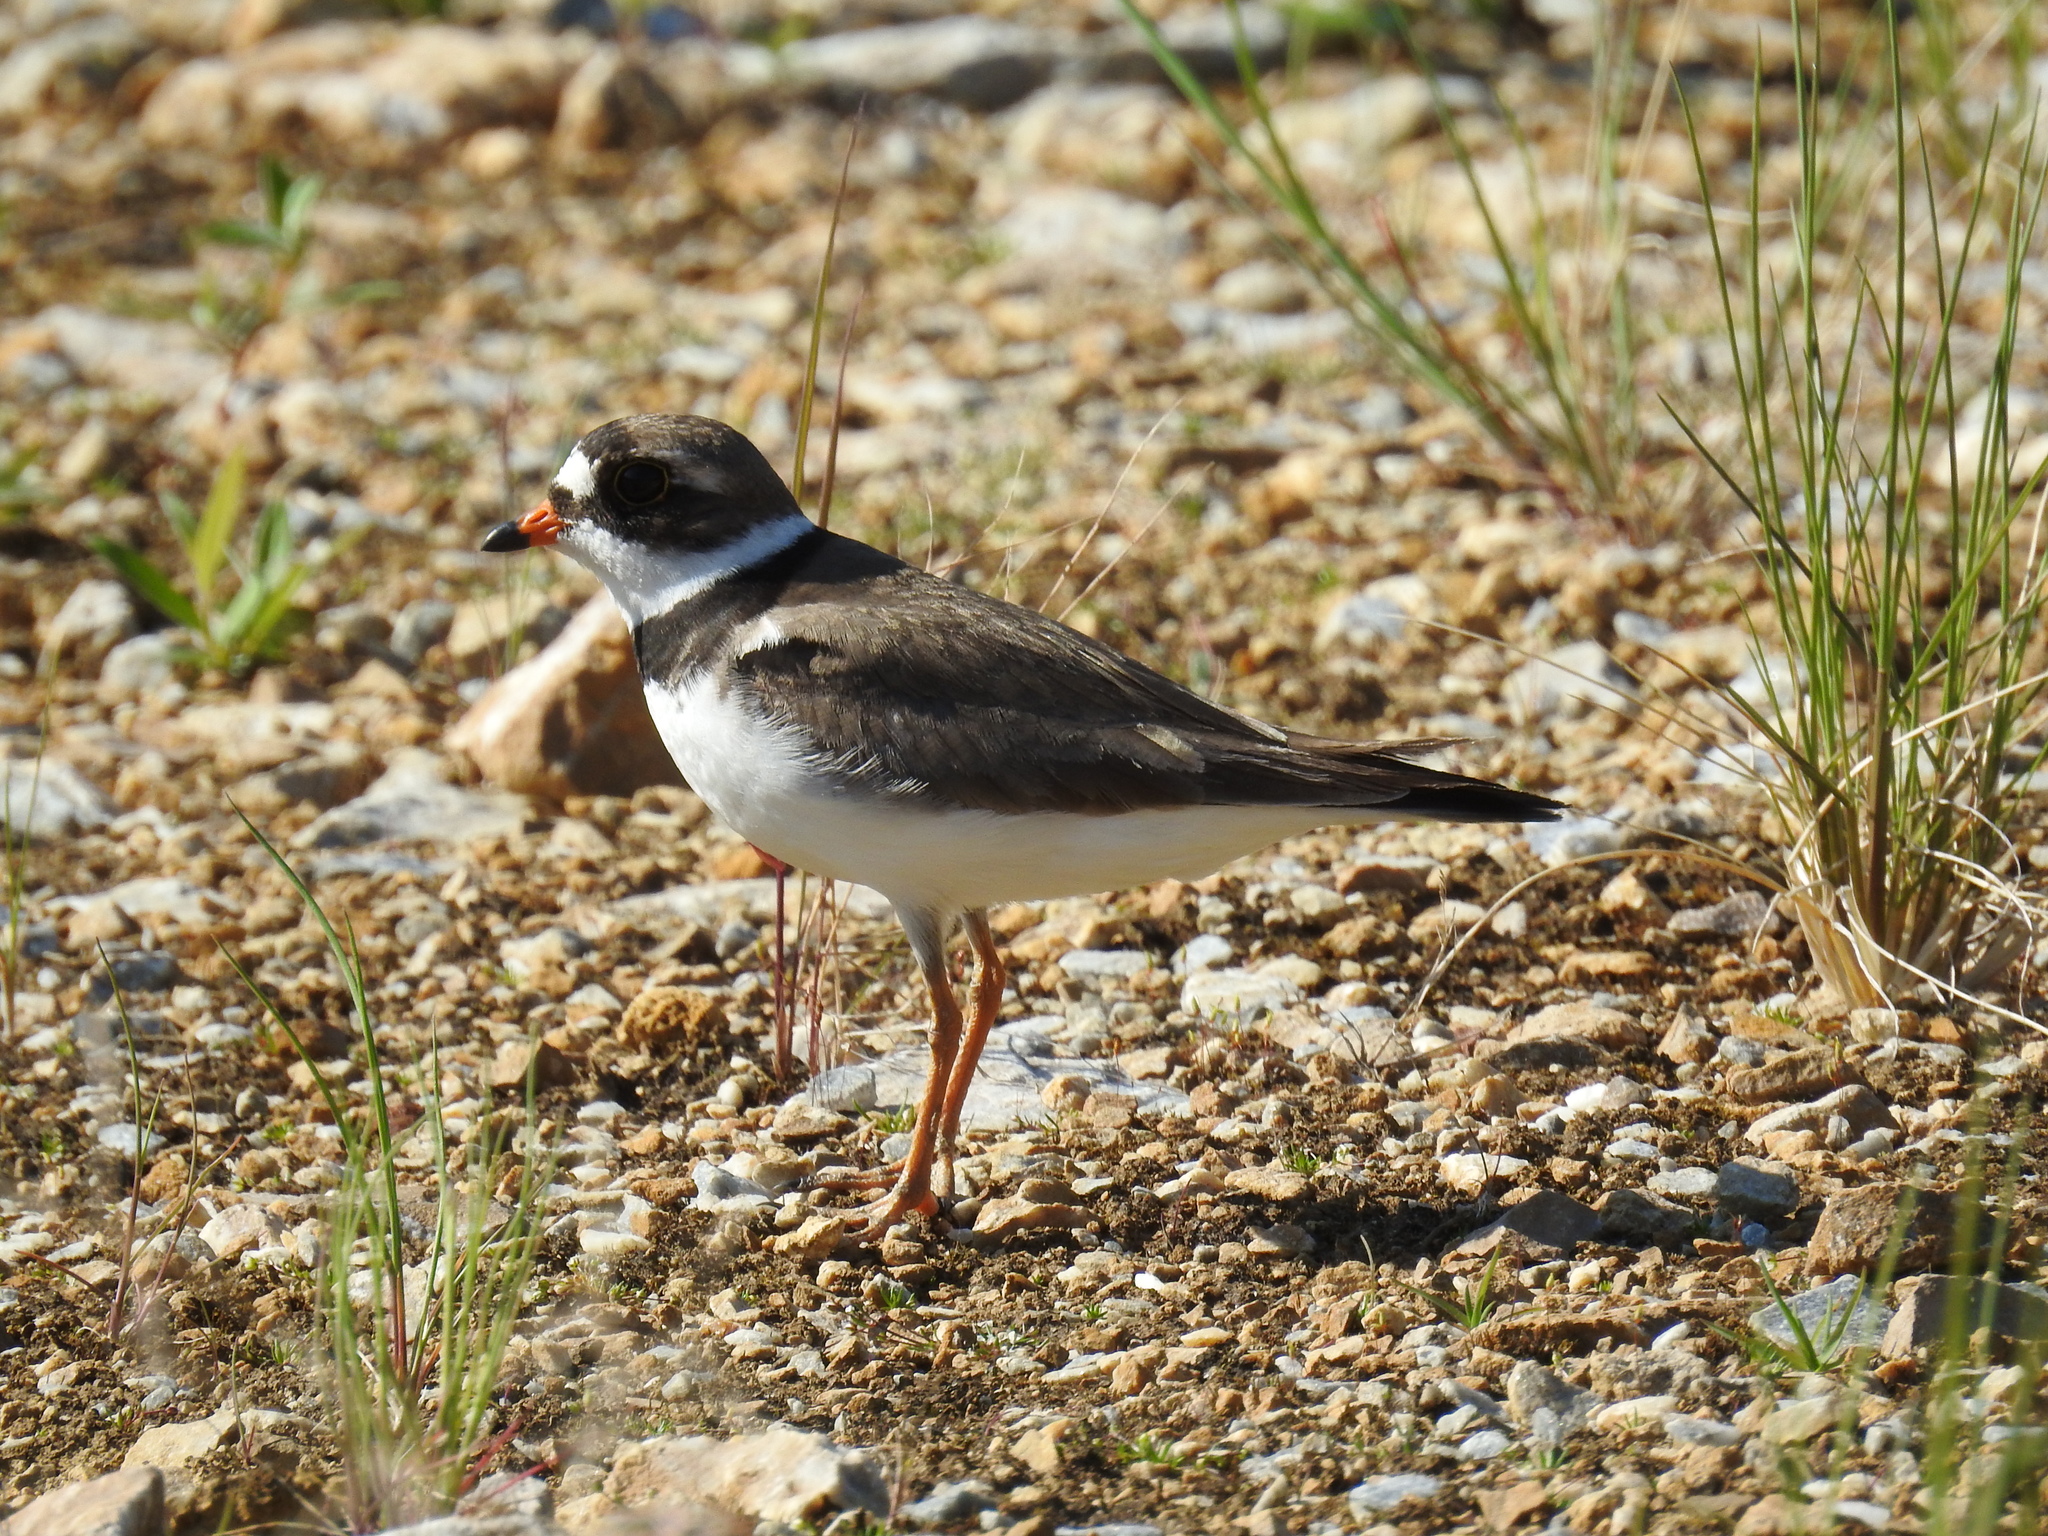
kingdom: Animalia
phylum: Chordata
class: Aves
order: Charadriiformes
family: Charadriidae
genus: Charadrius
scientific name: Charadrius semipalmatus
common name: Semipalmated plover
